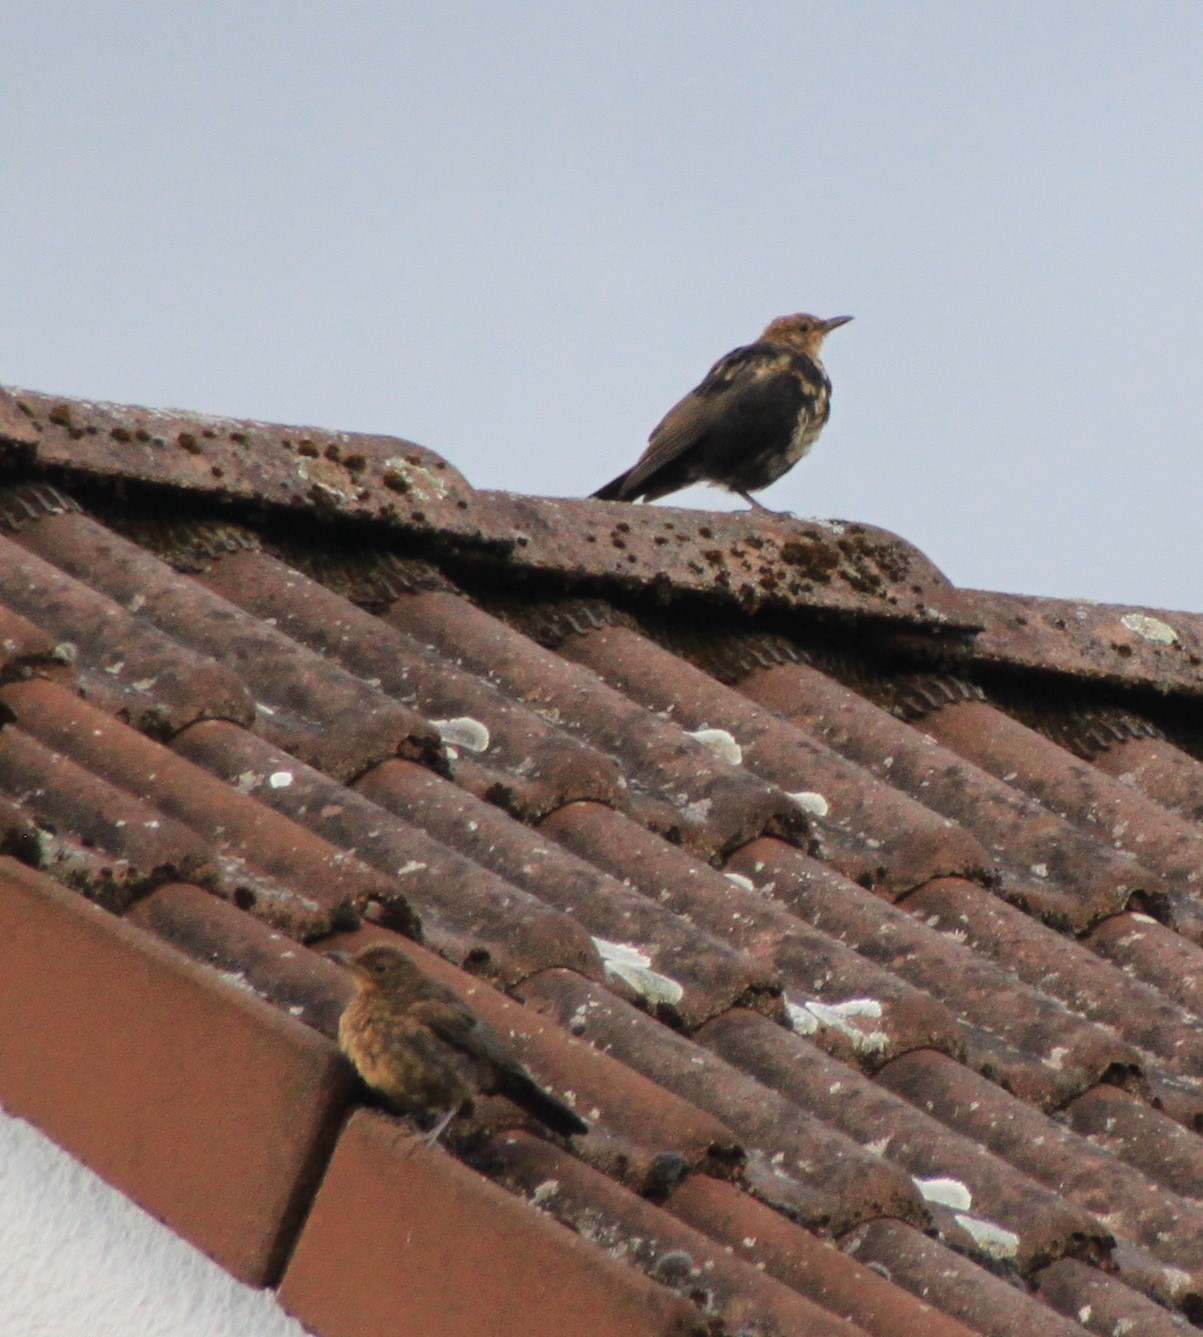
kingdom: Animalia
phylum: Chordata
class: Aves
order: Passeriformes
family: Turdidae
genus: Turdus
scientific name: Turdus merula
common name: Common blackbird
